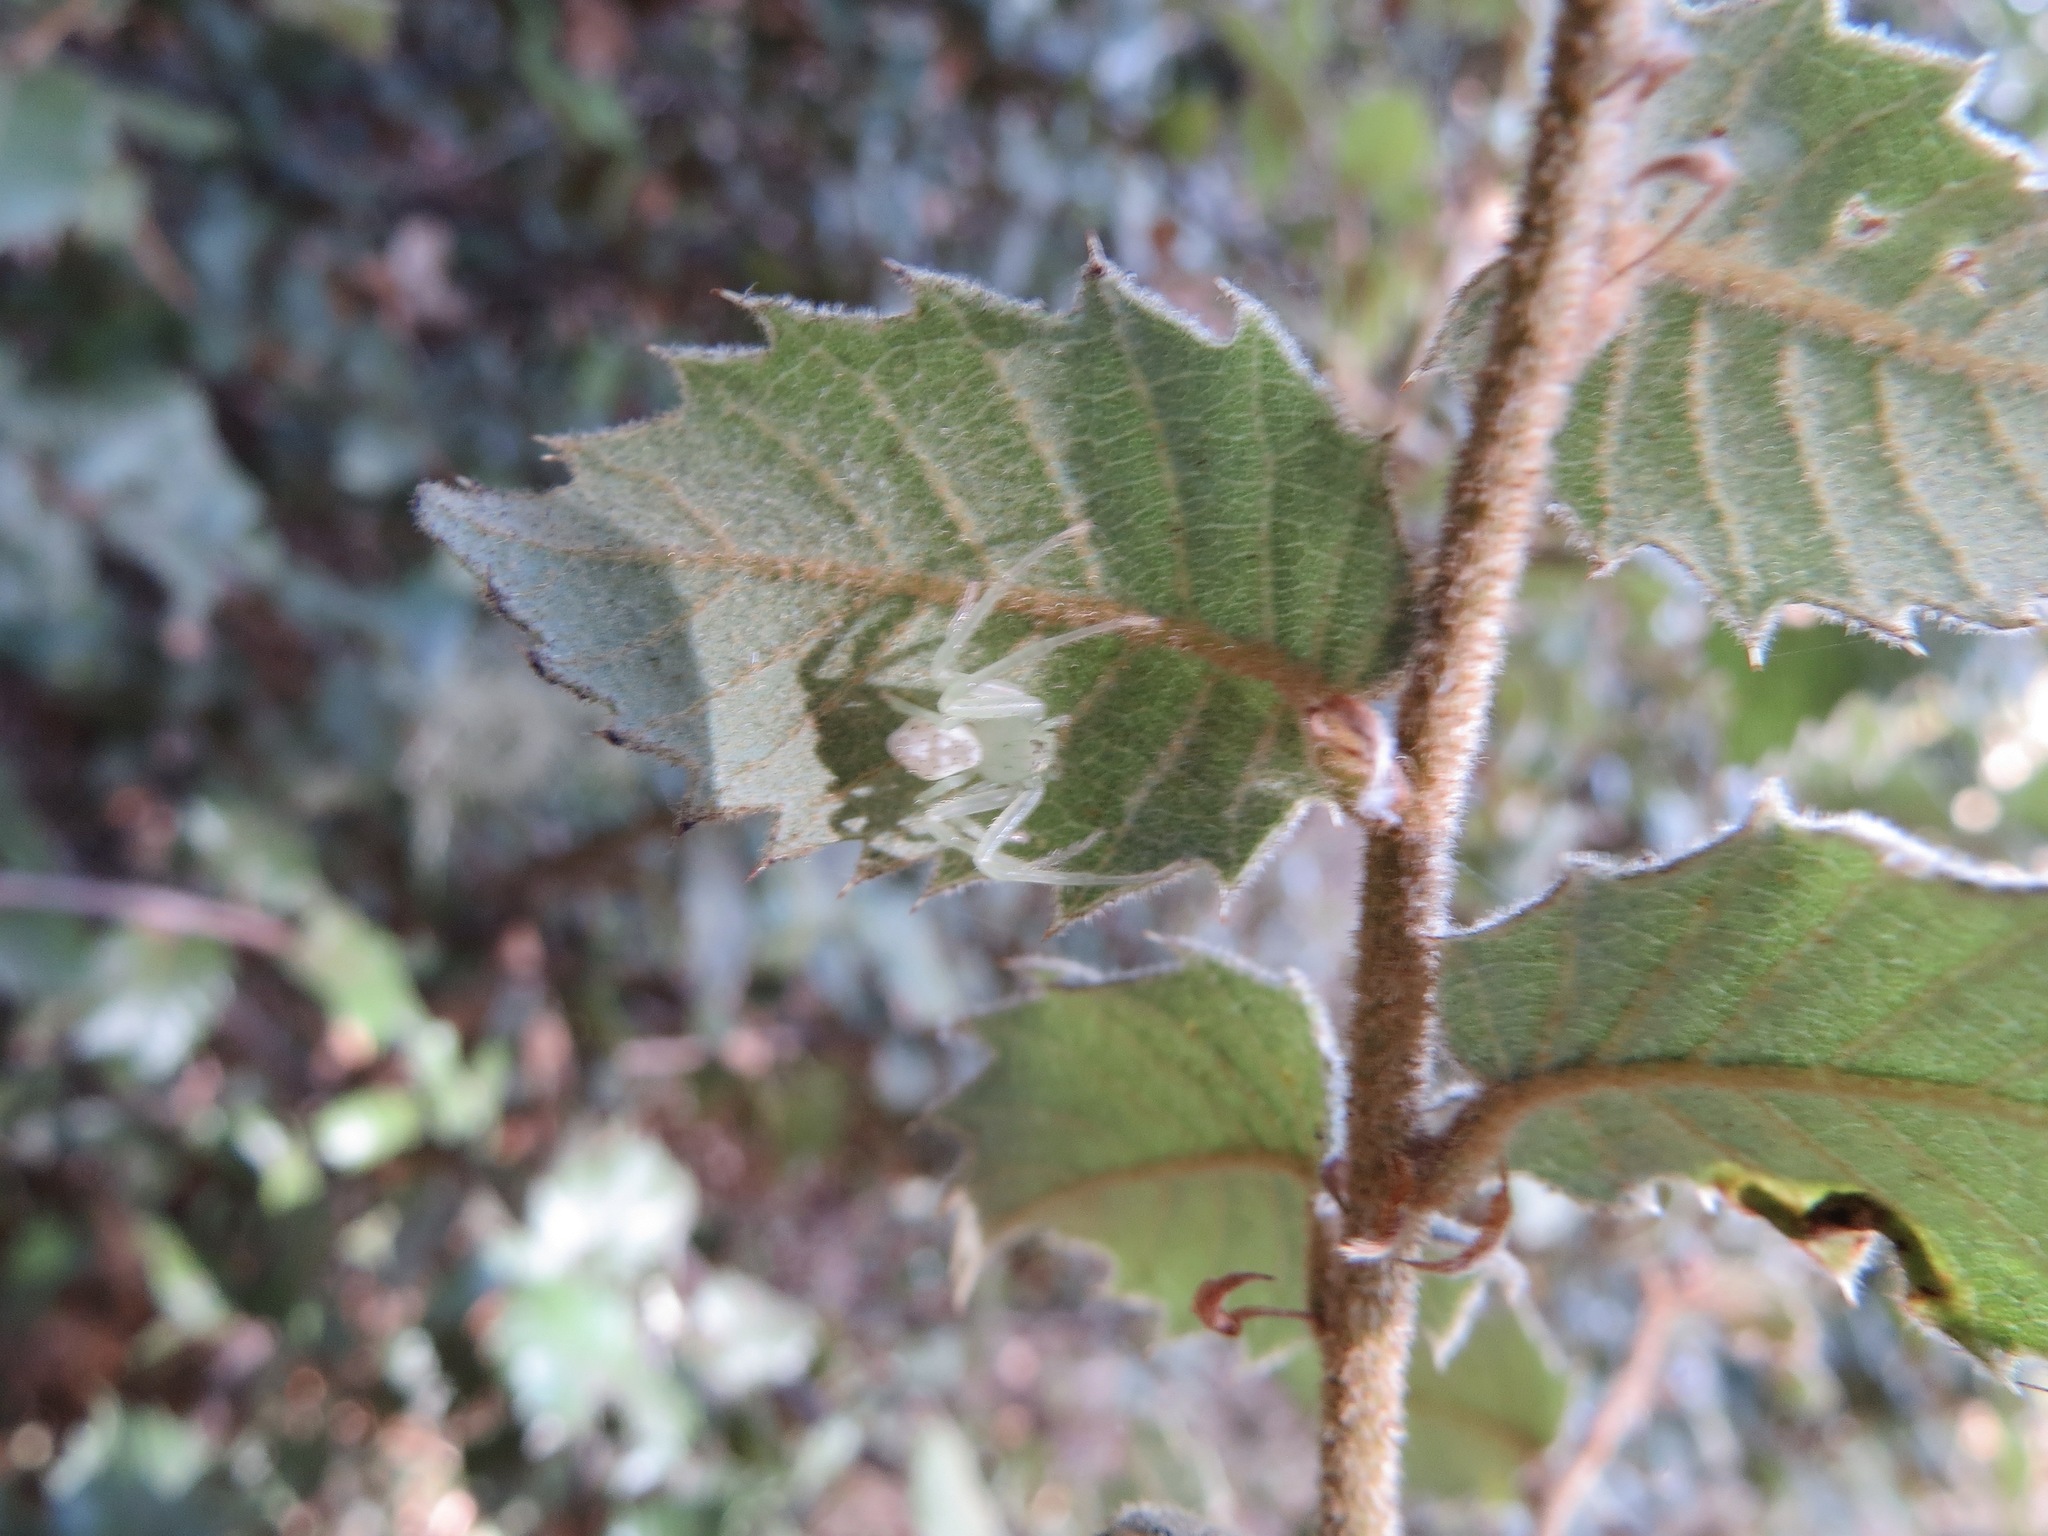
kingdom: Animalia
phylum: Arthropoda
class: Arachnida
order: Araneae
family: Thomisidae
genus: Diaea
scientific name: Diaea livens
